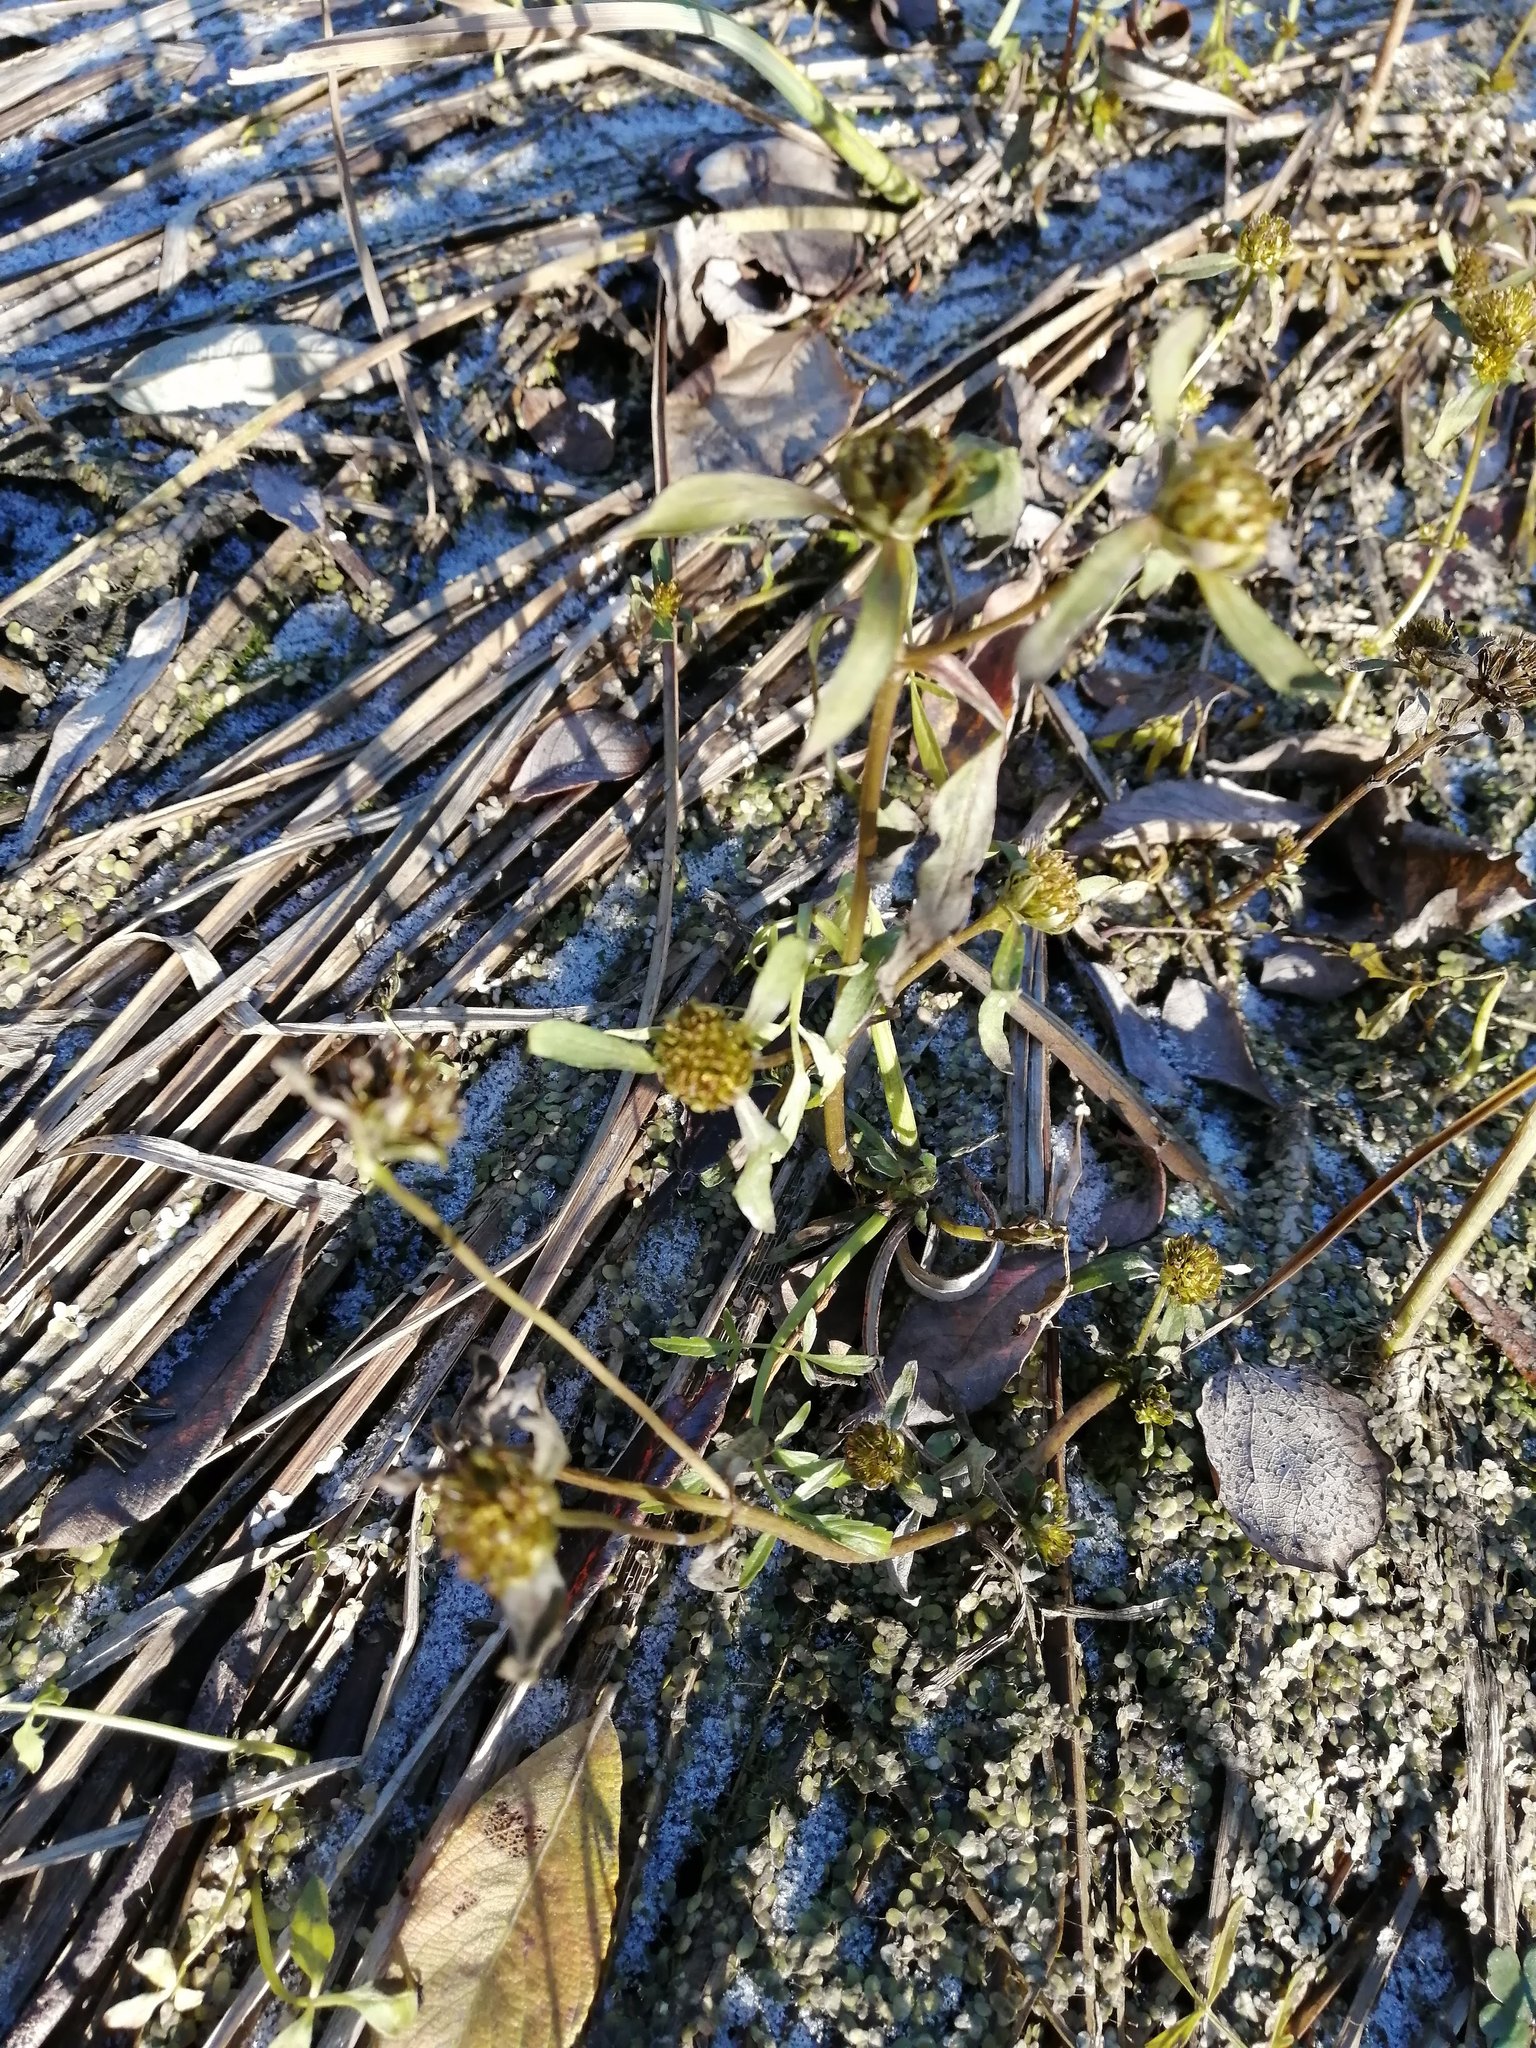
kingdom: Plantae
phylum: Tracheophyta
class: Magnoliopsida
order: Asterales
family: Asteraceae
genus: Bidens
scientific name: Bidens radiata
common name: Radiating bur-marigold
